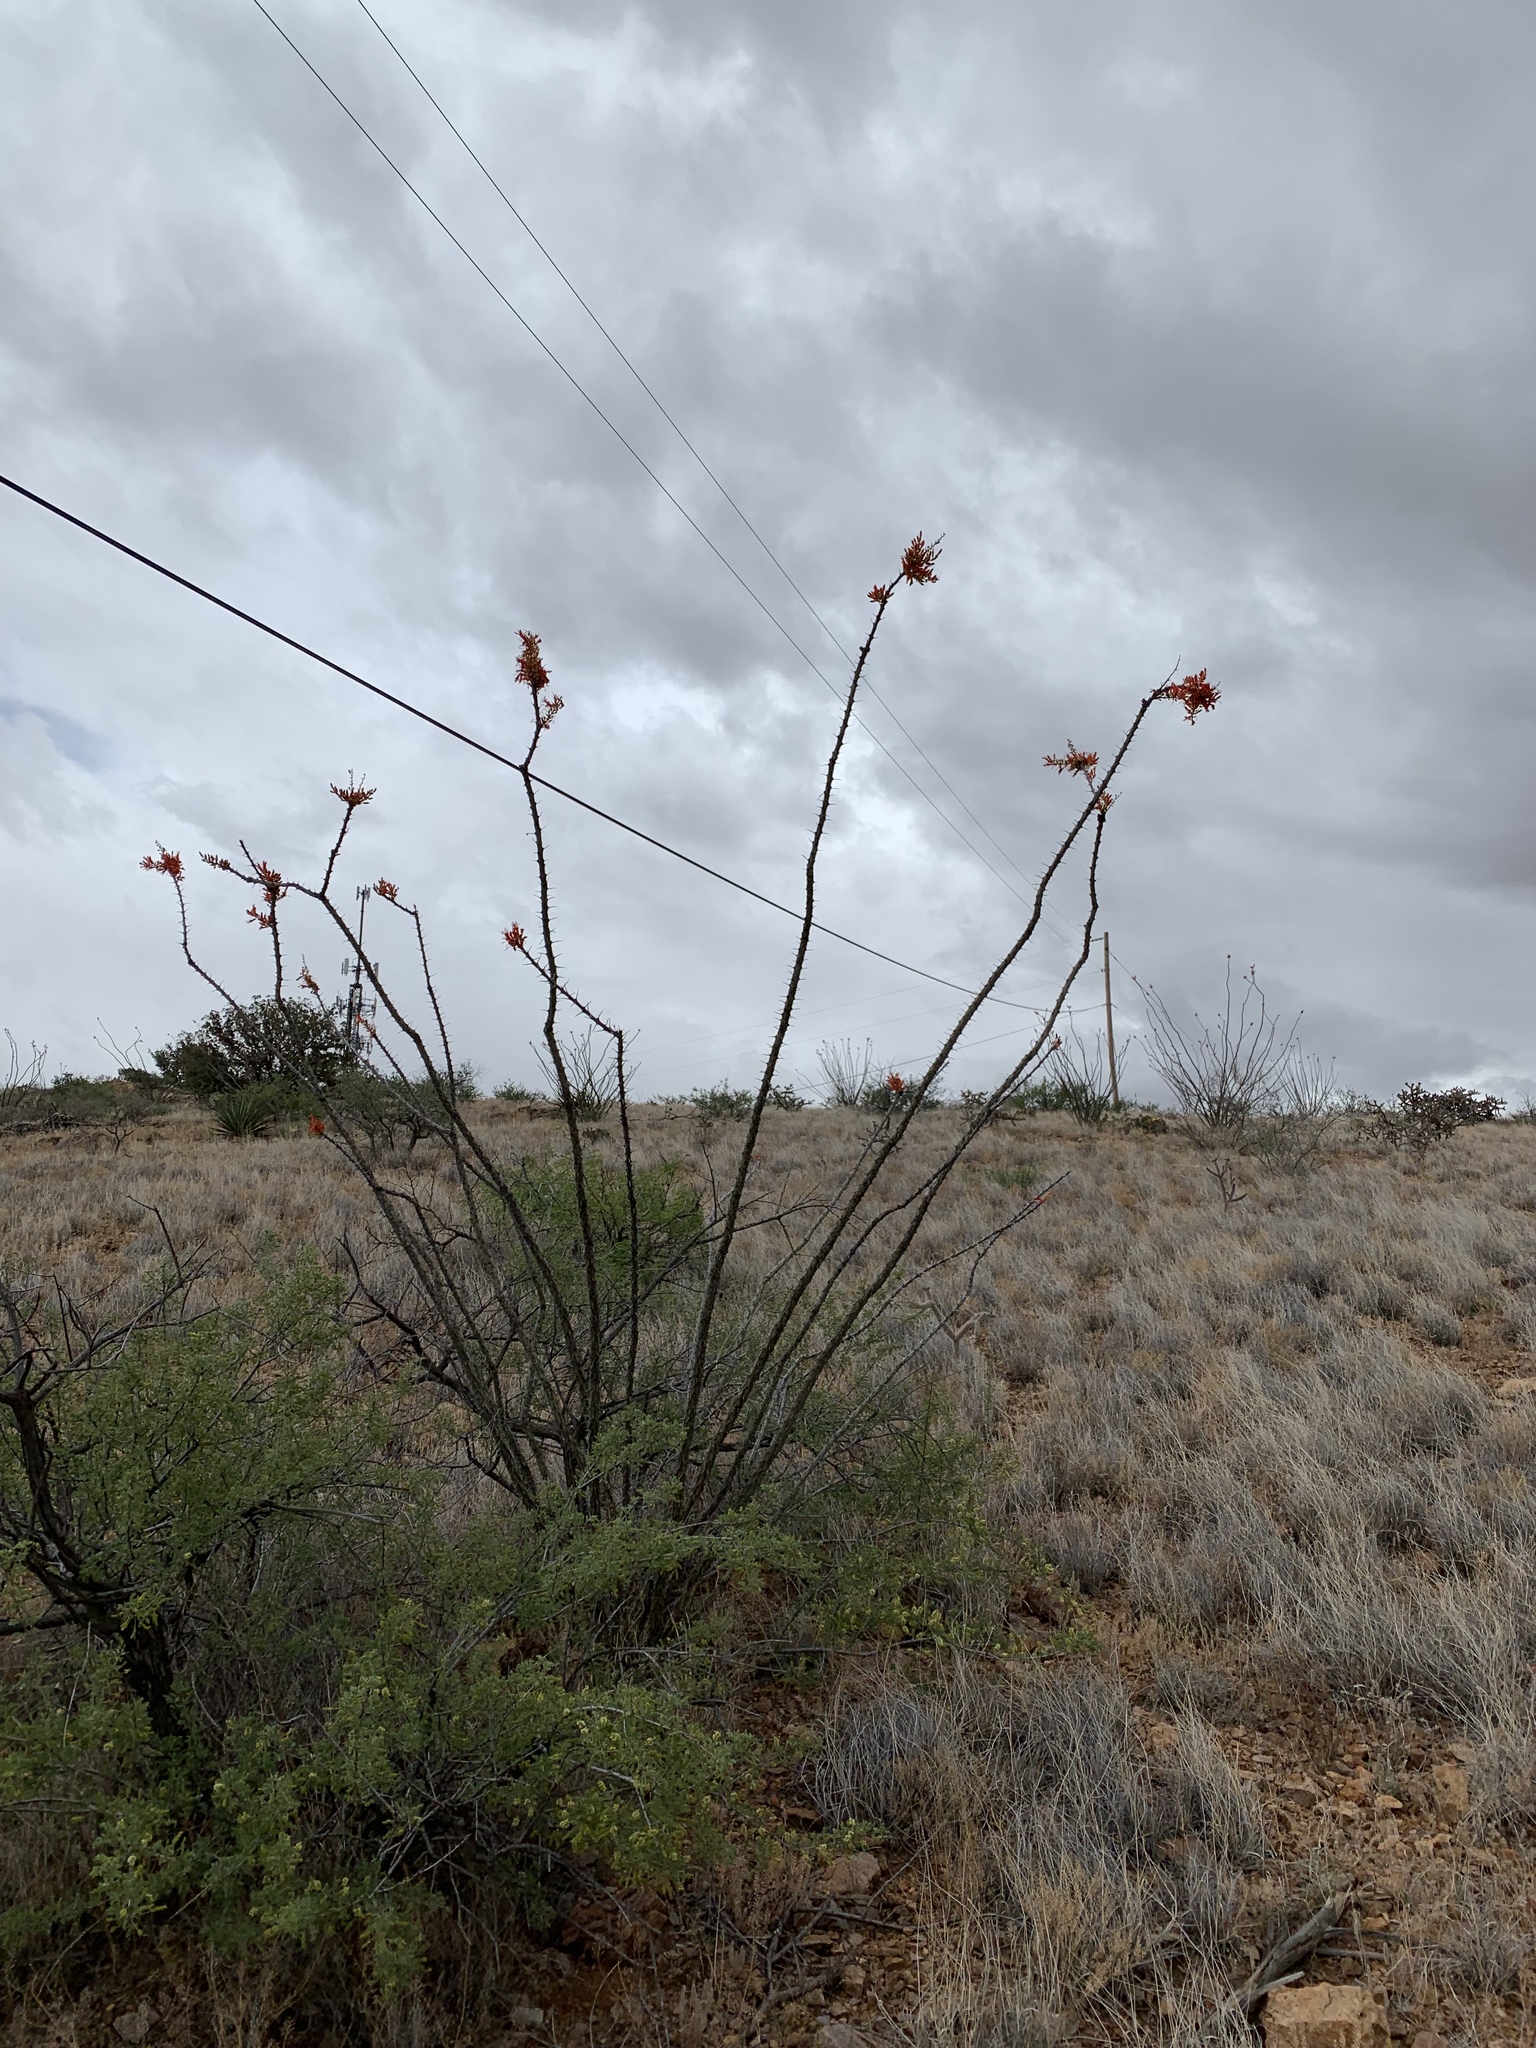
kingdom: Plantae
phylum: Tracheophyta
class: Magnoliopsida
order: Ericales
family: Fouquieriaceae
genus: Fouquieria
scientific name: Fouquieria splendens
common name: Vine-cactus
